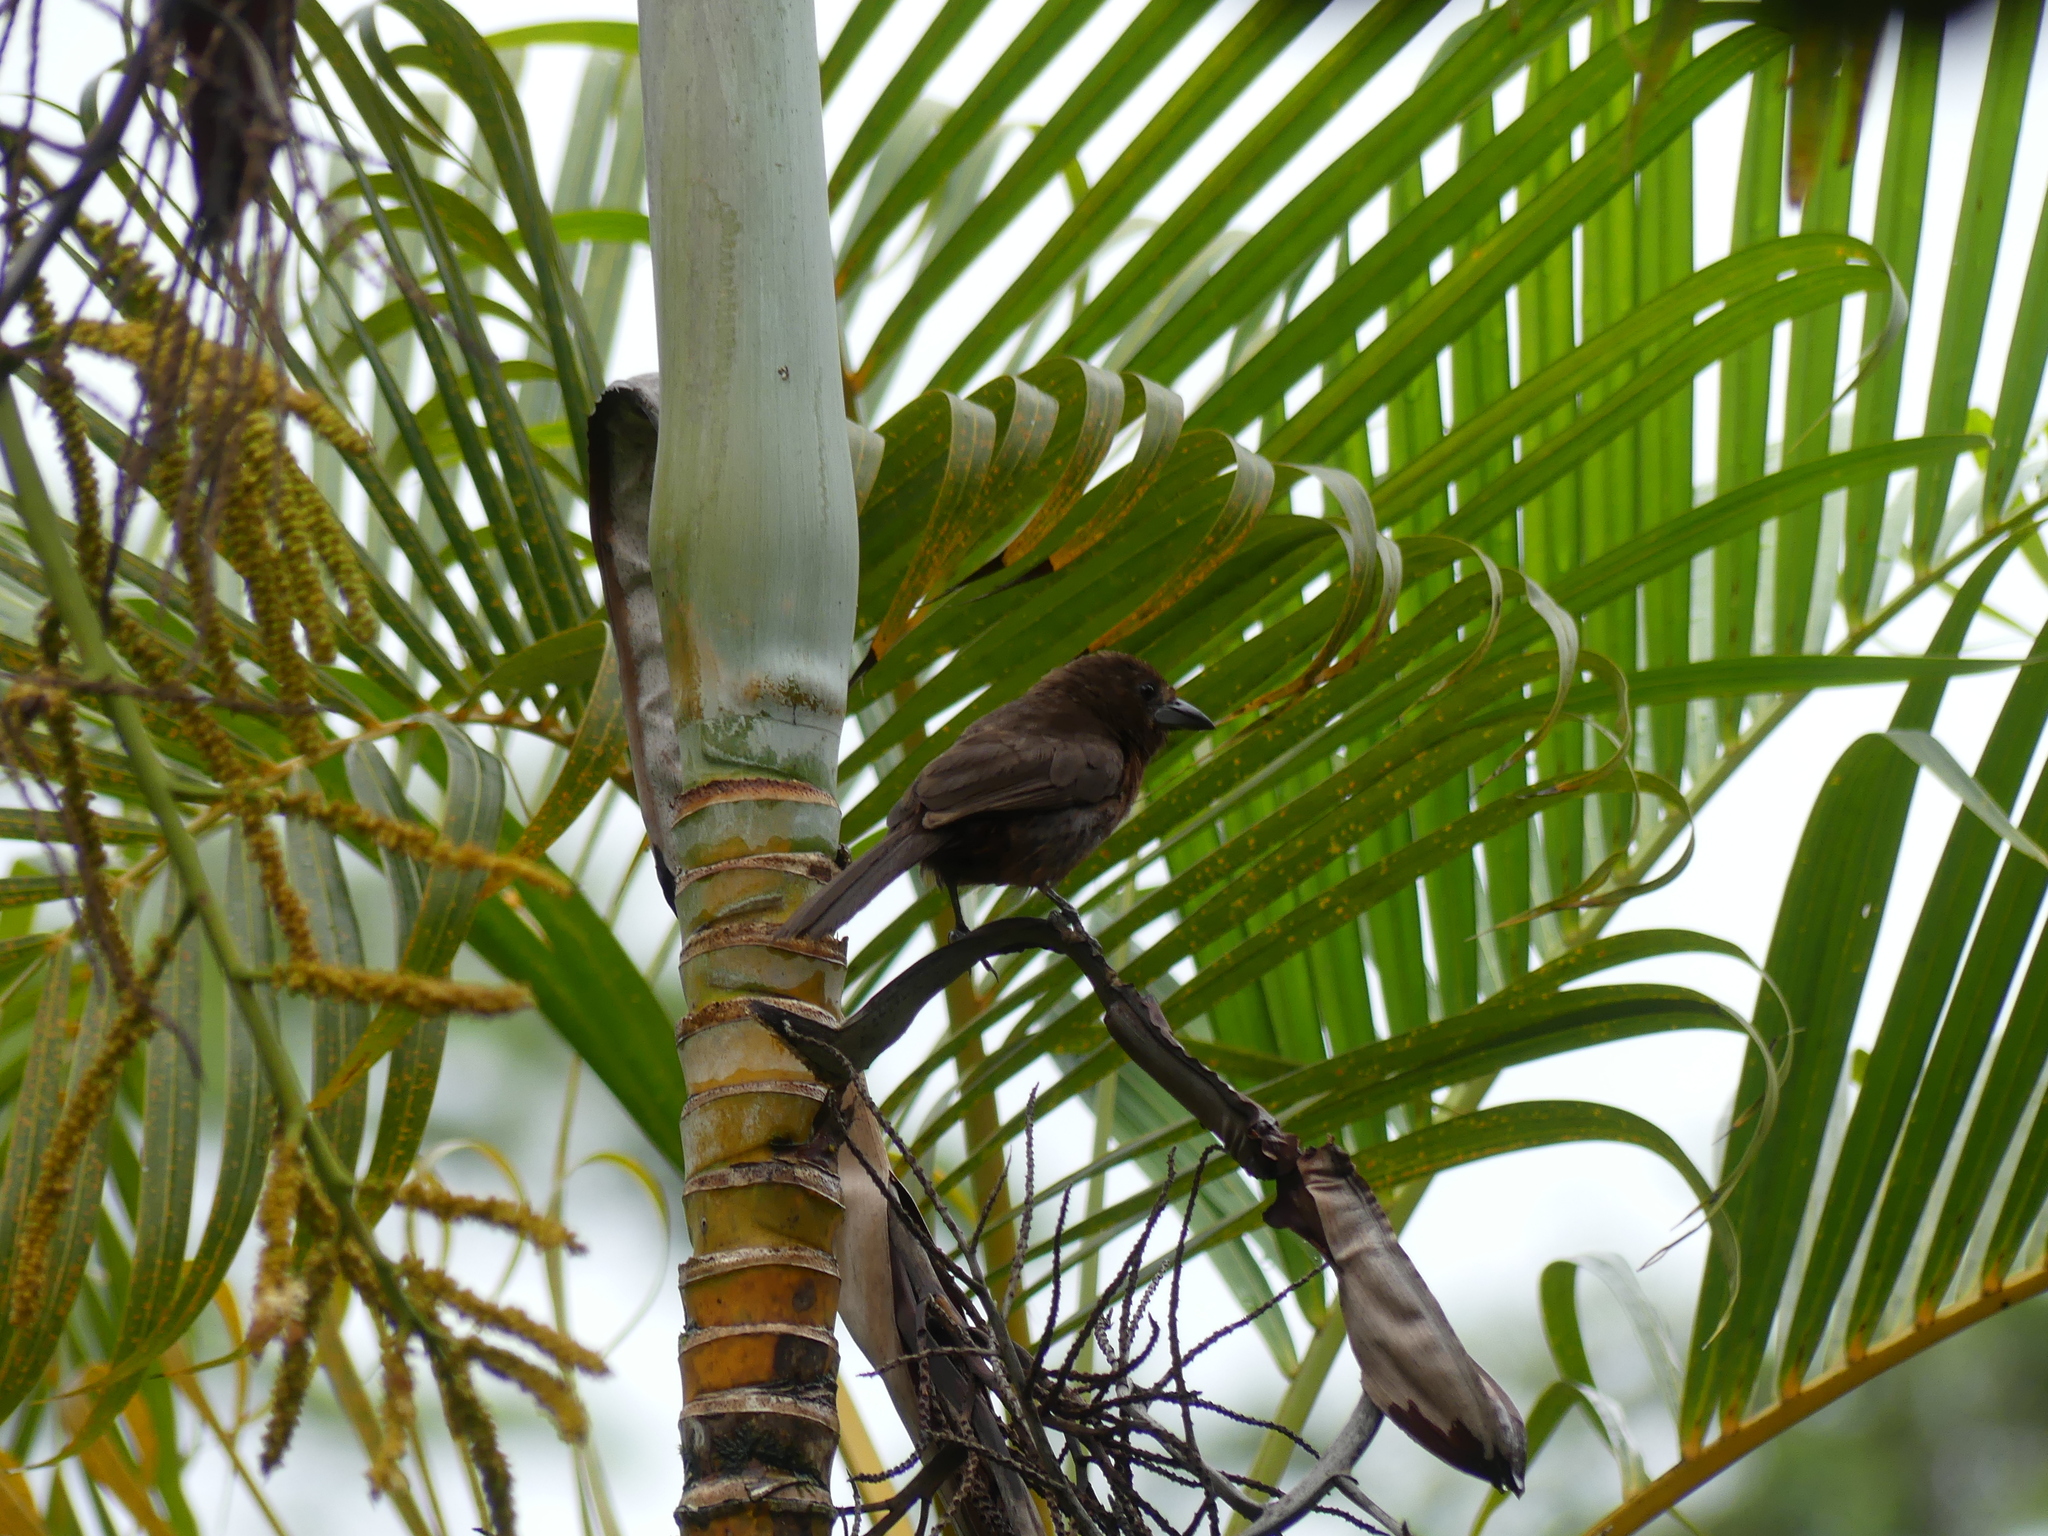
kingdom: Animalia
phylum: Chordata
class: Aves
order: Passeriformes
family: Thraupidae
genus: Ramphocelus
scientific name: Ramphocelus carbo
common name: Silver-beaked tanager
